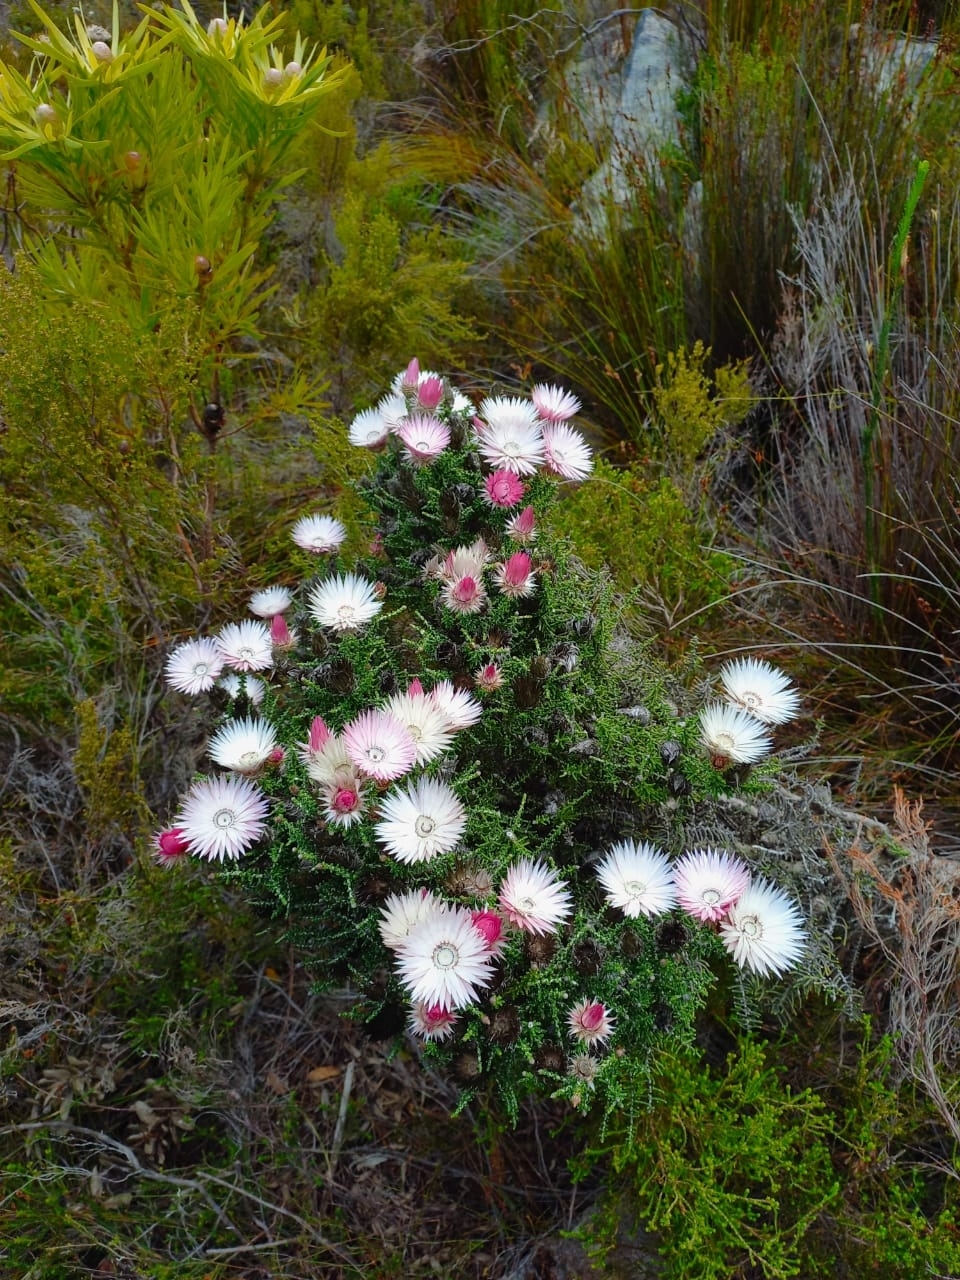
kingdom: Plantae
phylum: Tracheophyta
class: Magnoliopsida
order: Asterales
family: Asteraceae
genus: Phaenocoma
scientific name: Phaenocoma prolifera
